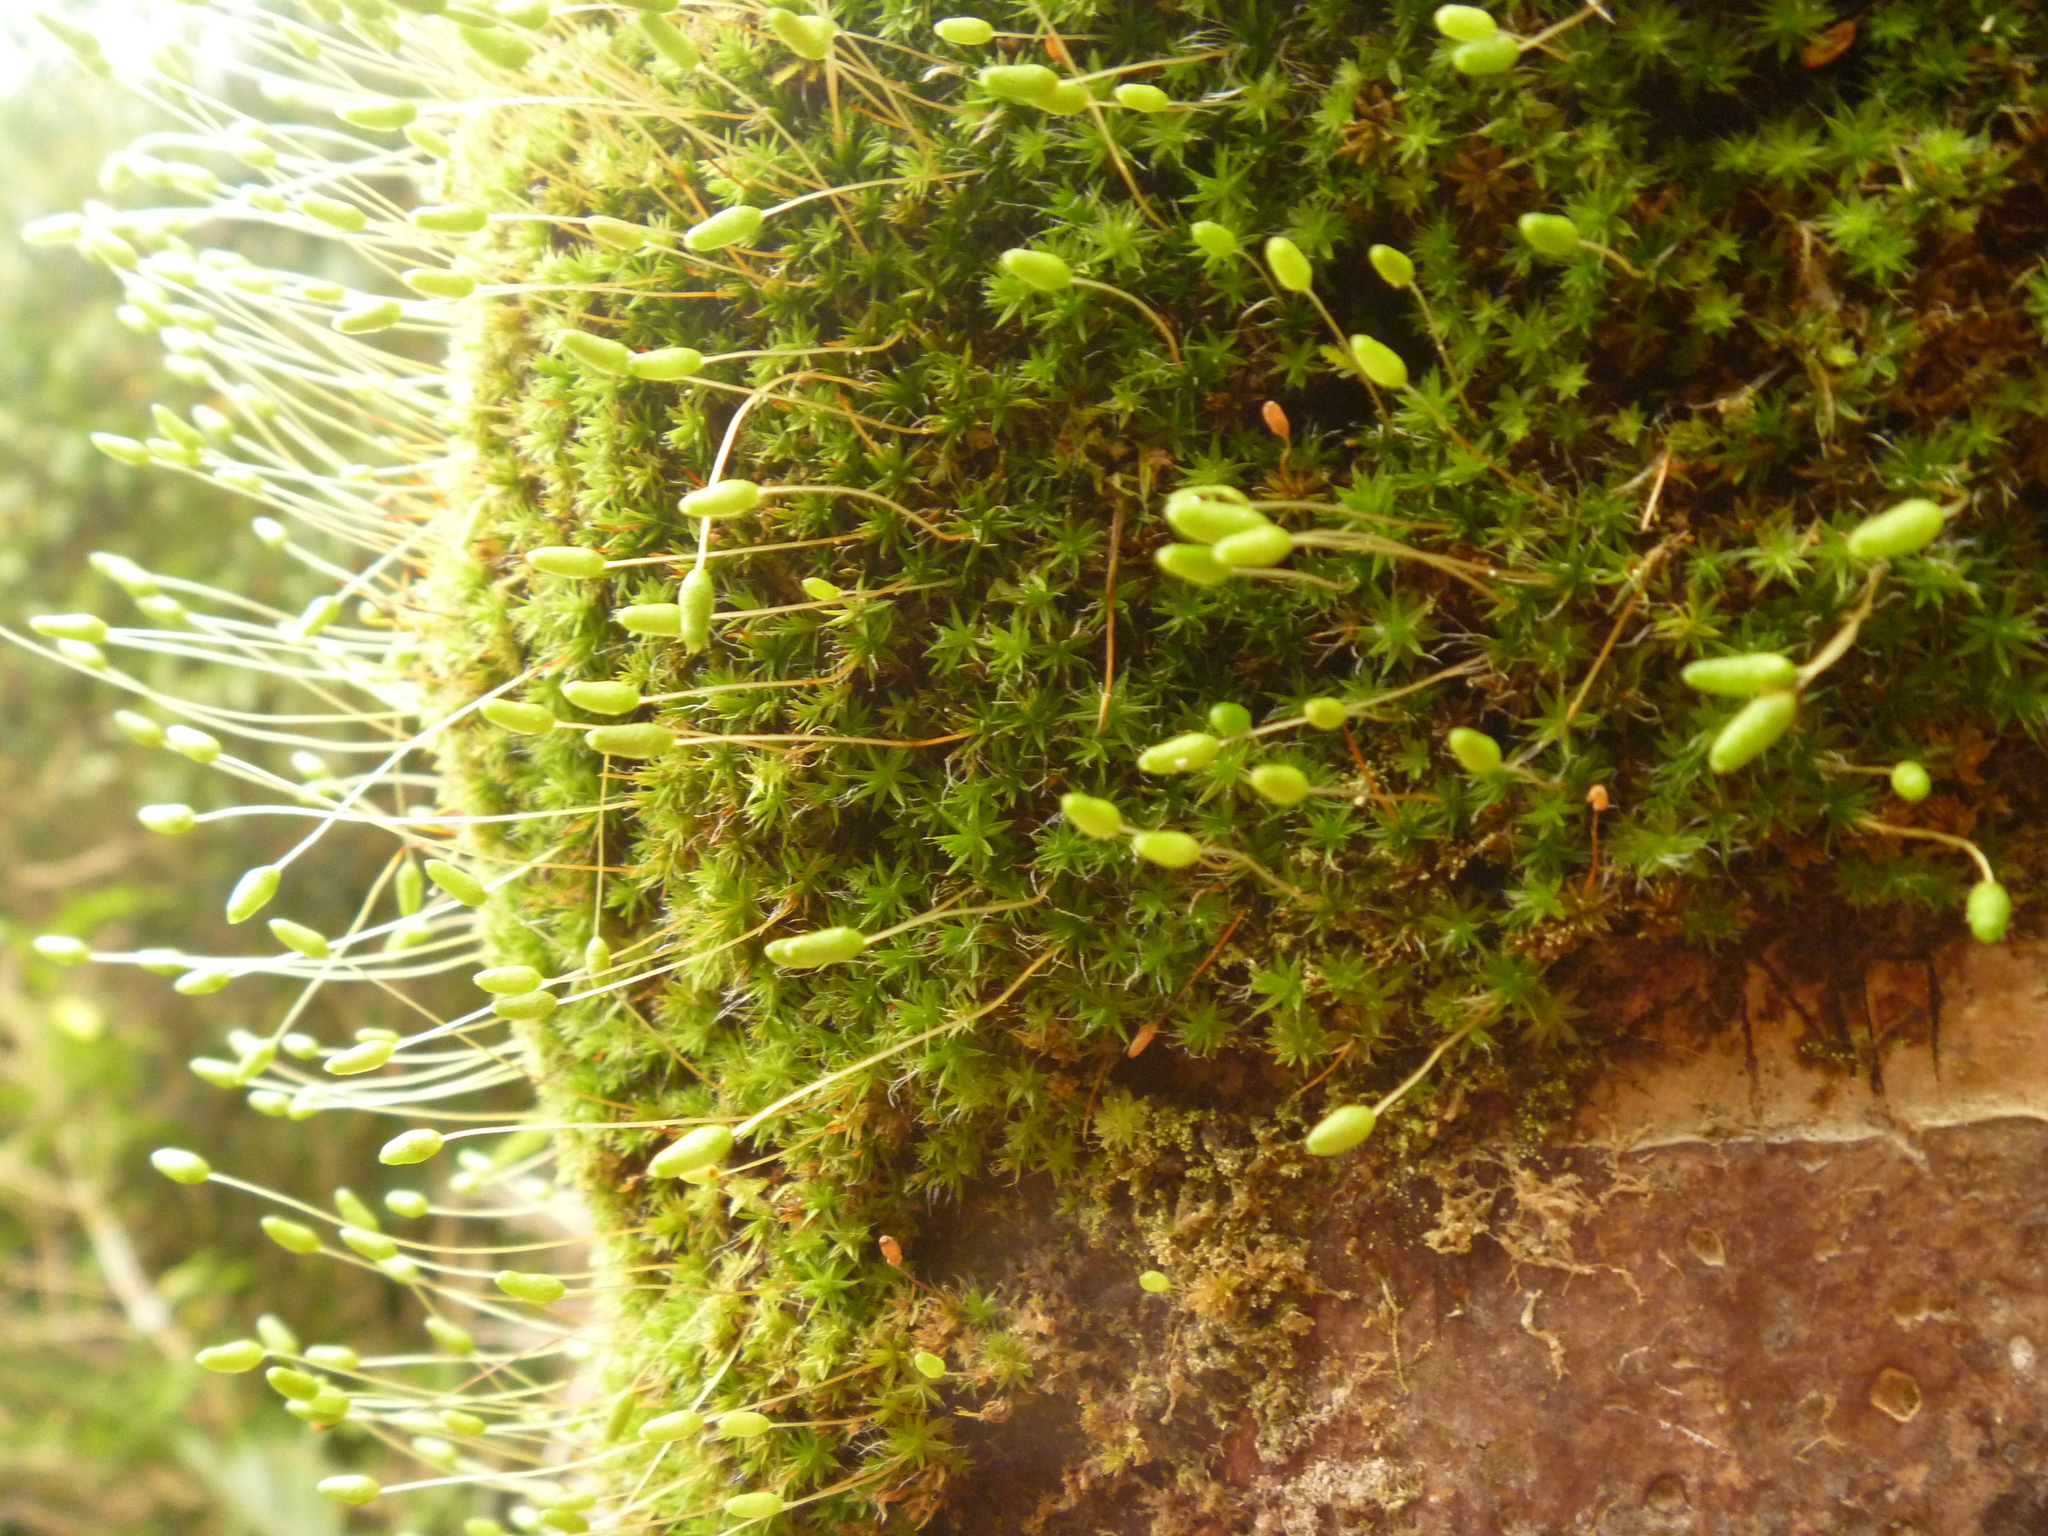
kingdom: Plantae
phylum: Bryophyta
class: Bryopsida
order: Bryales
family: Leptostomataceae
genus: Leptostomum
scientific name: Leptostomum macrocarpon
